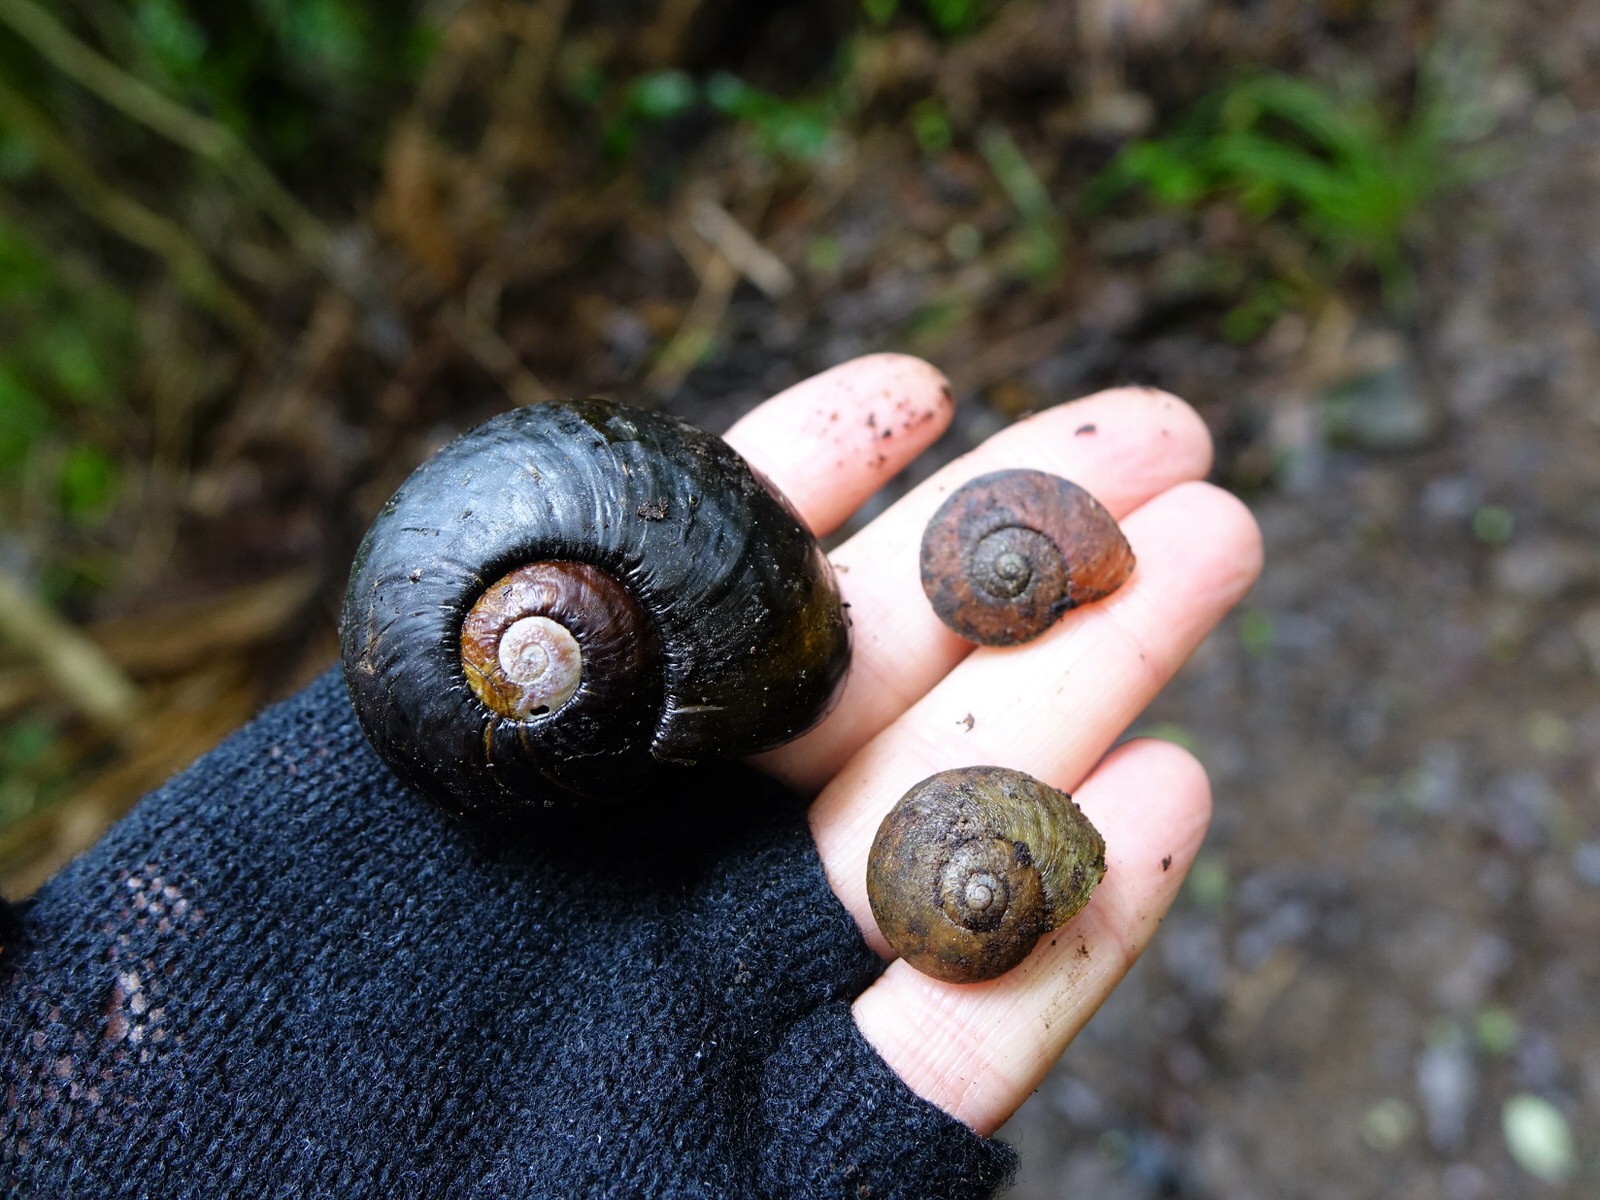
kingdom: Animalia
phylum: Mollusca
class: Gastropoda
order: Stylommatophora
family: Rhytididae
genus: Rhytida
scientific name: Rhytida greenwoodi
